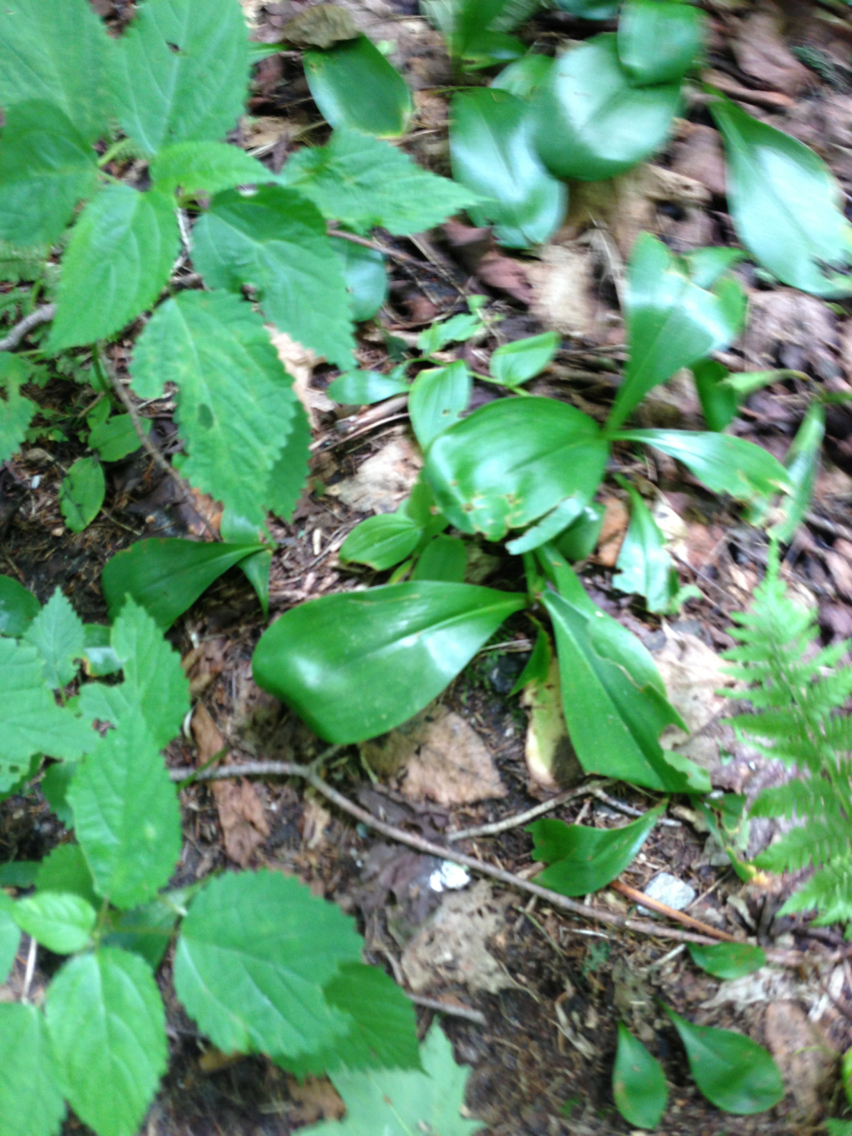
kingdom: Plantae
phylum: Tracheophyta
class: Liliopsida
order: Liliales
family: Liliaceae
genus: Clintonia
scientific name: Clintonia borealis
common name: Yellow clintonia
